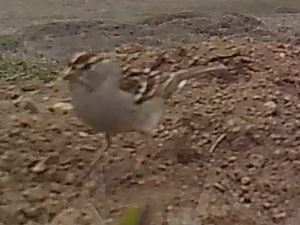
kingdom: Animalia
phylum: Chordata
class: Aves
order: Passeriformes
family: Passerellidae
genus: Zonotrichia
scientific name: Zonotrichia leucophrys
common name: White-crowned sparrow
